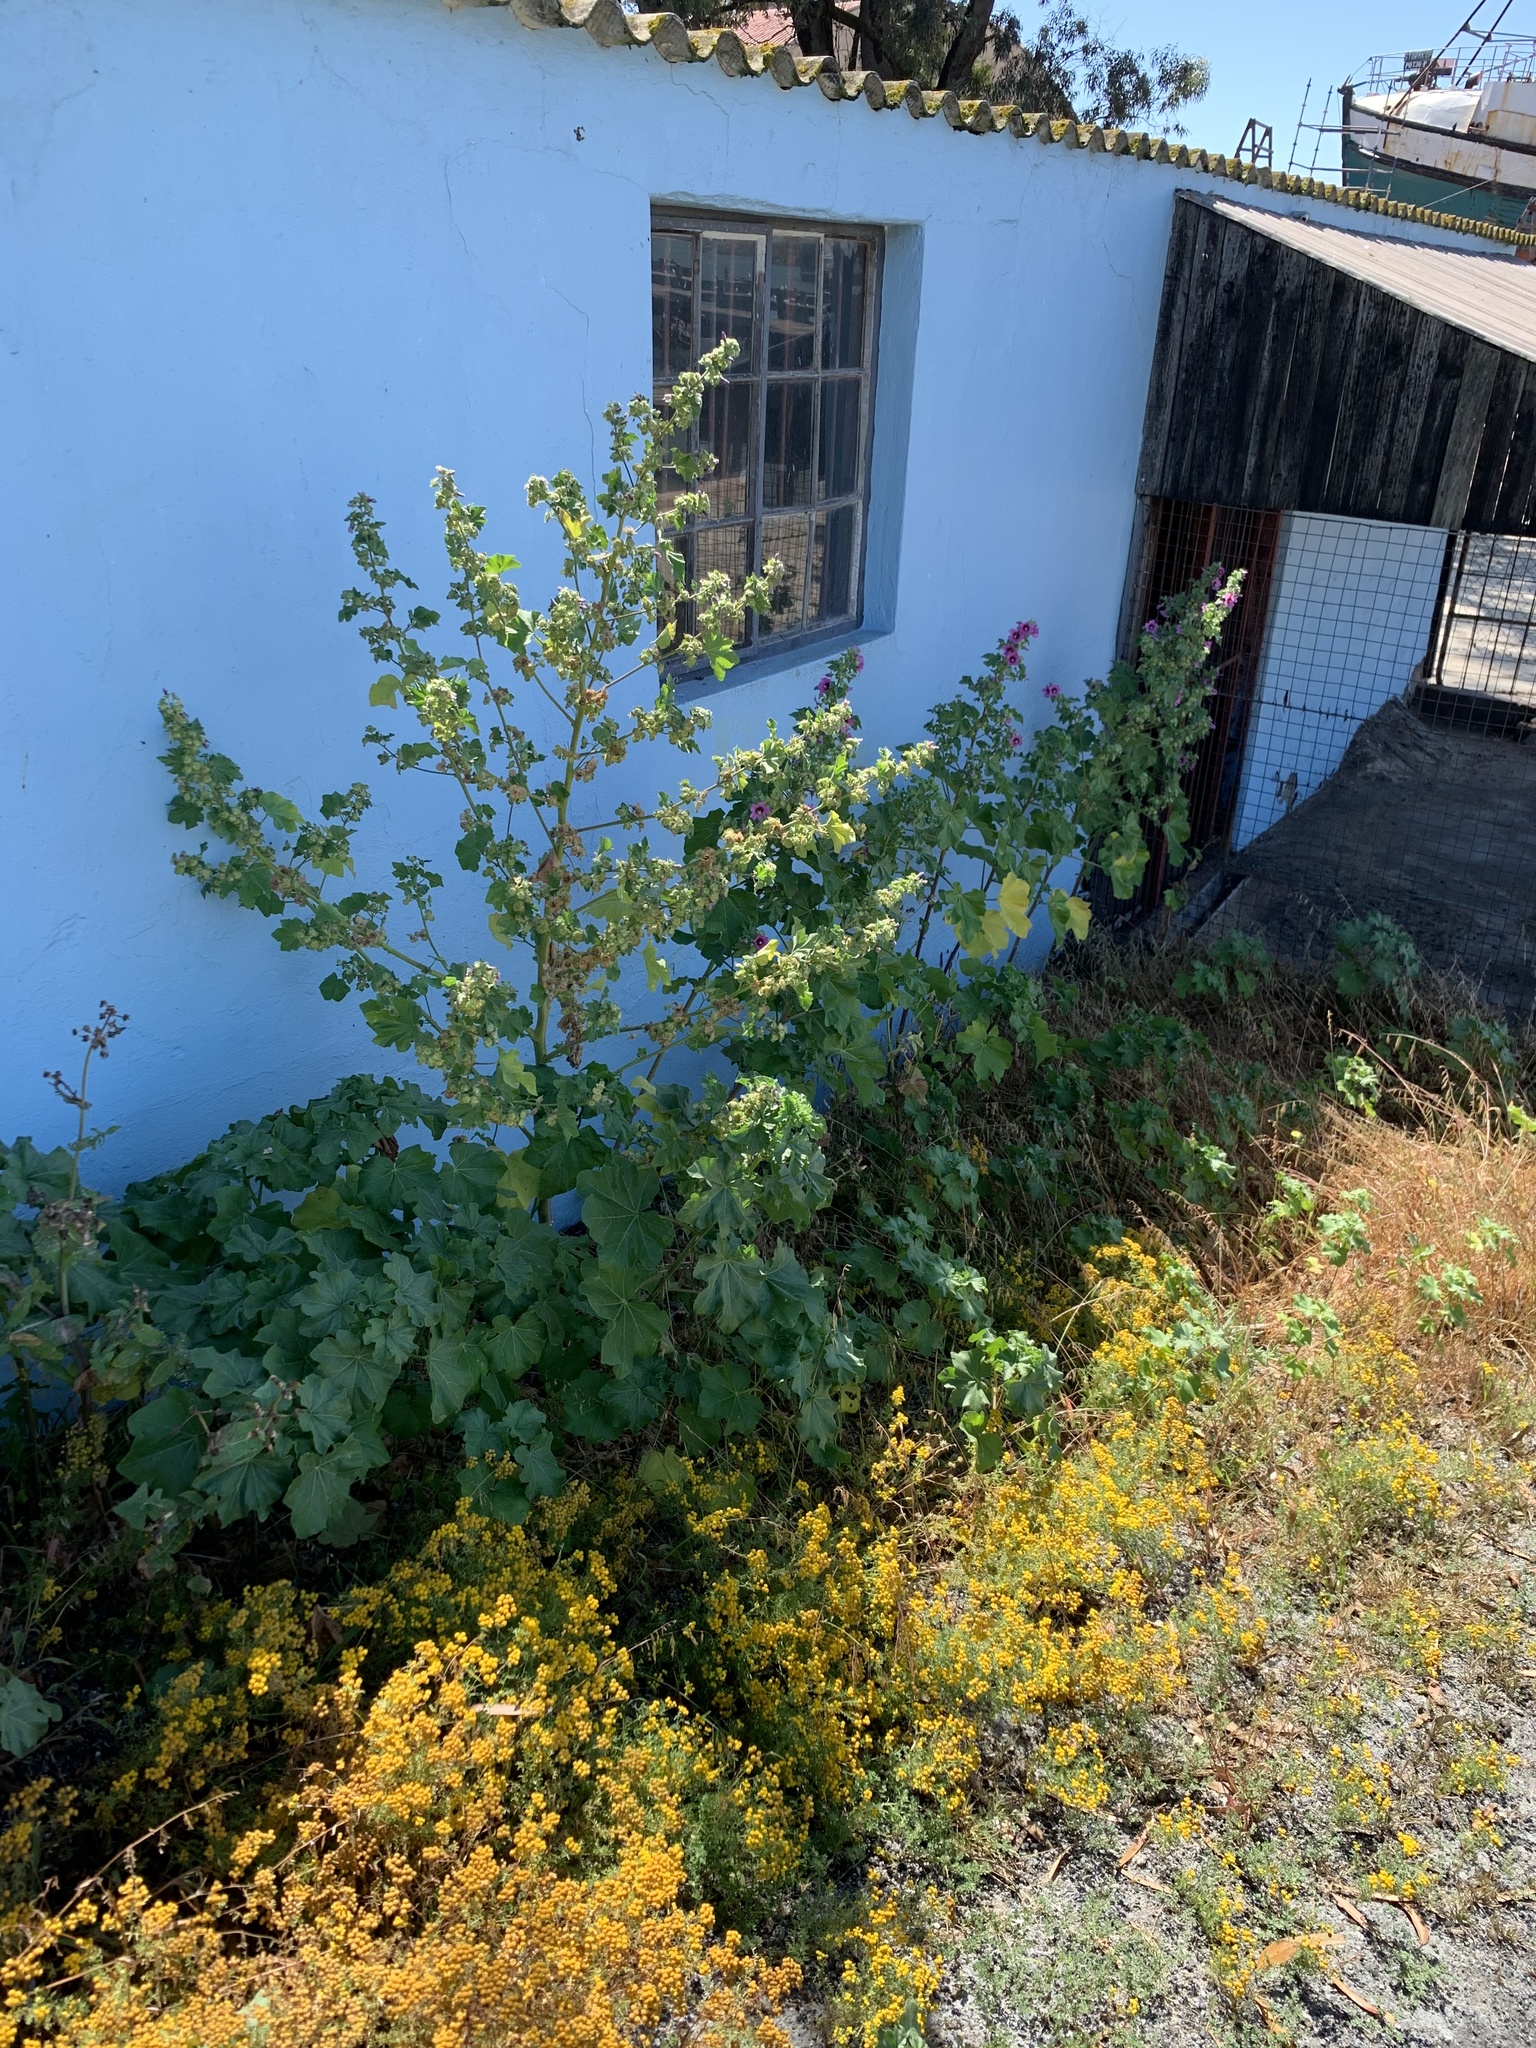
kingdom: Plantae
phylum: Tracheophyta
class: Magnoliopsida
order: Malvales
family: Malvaceae
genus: Malva
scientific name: Malva arborea
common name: Tree mallow
